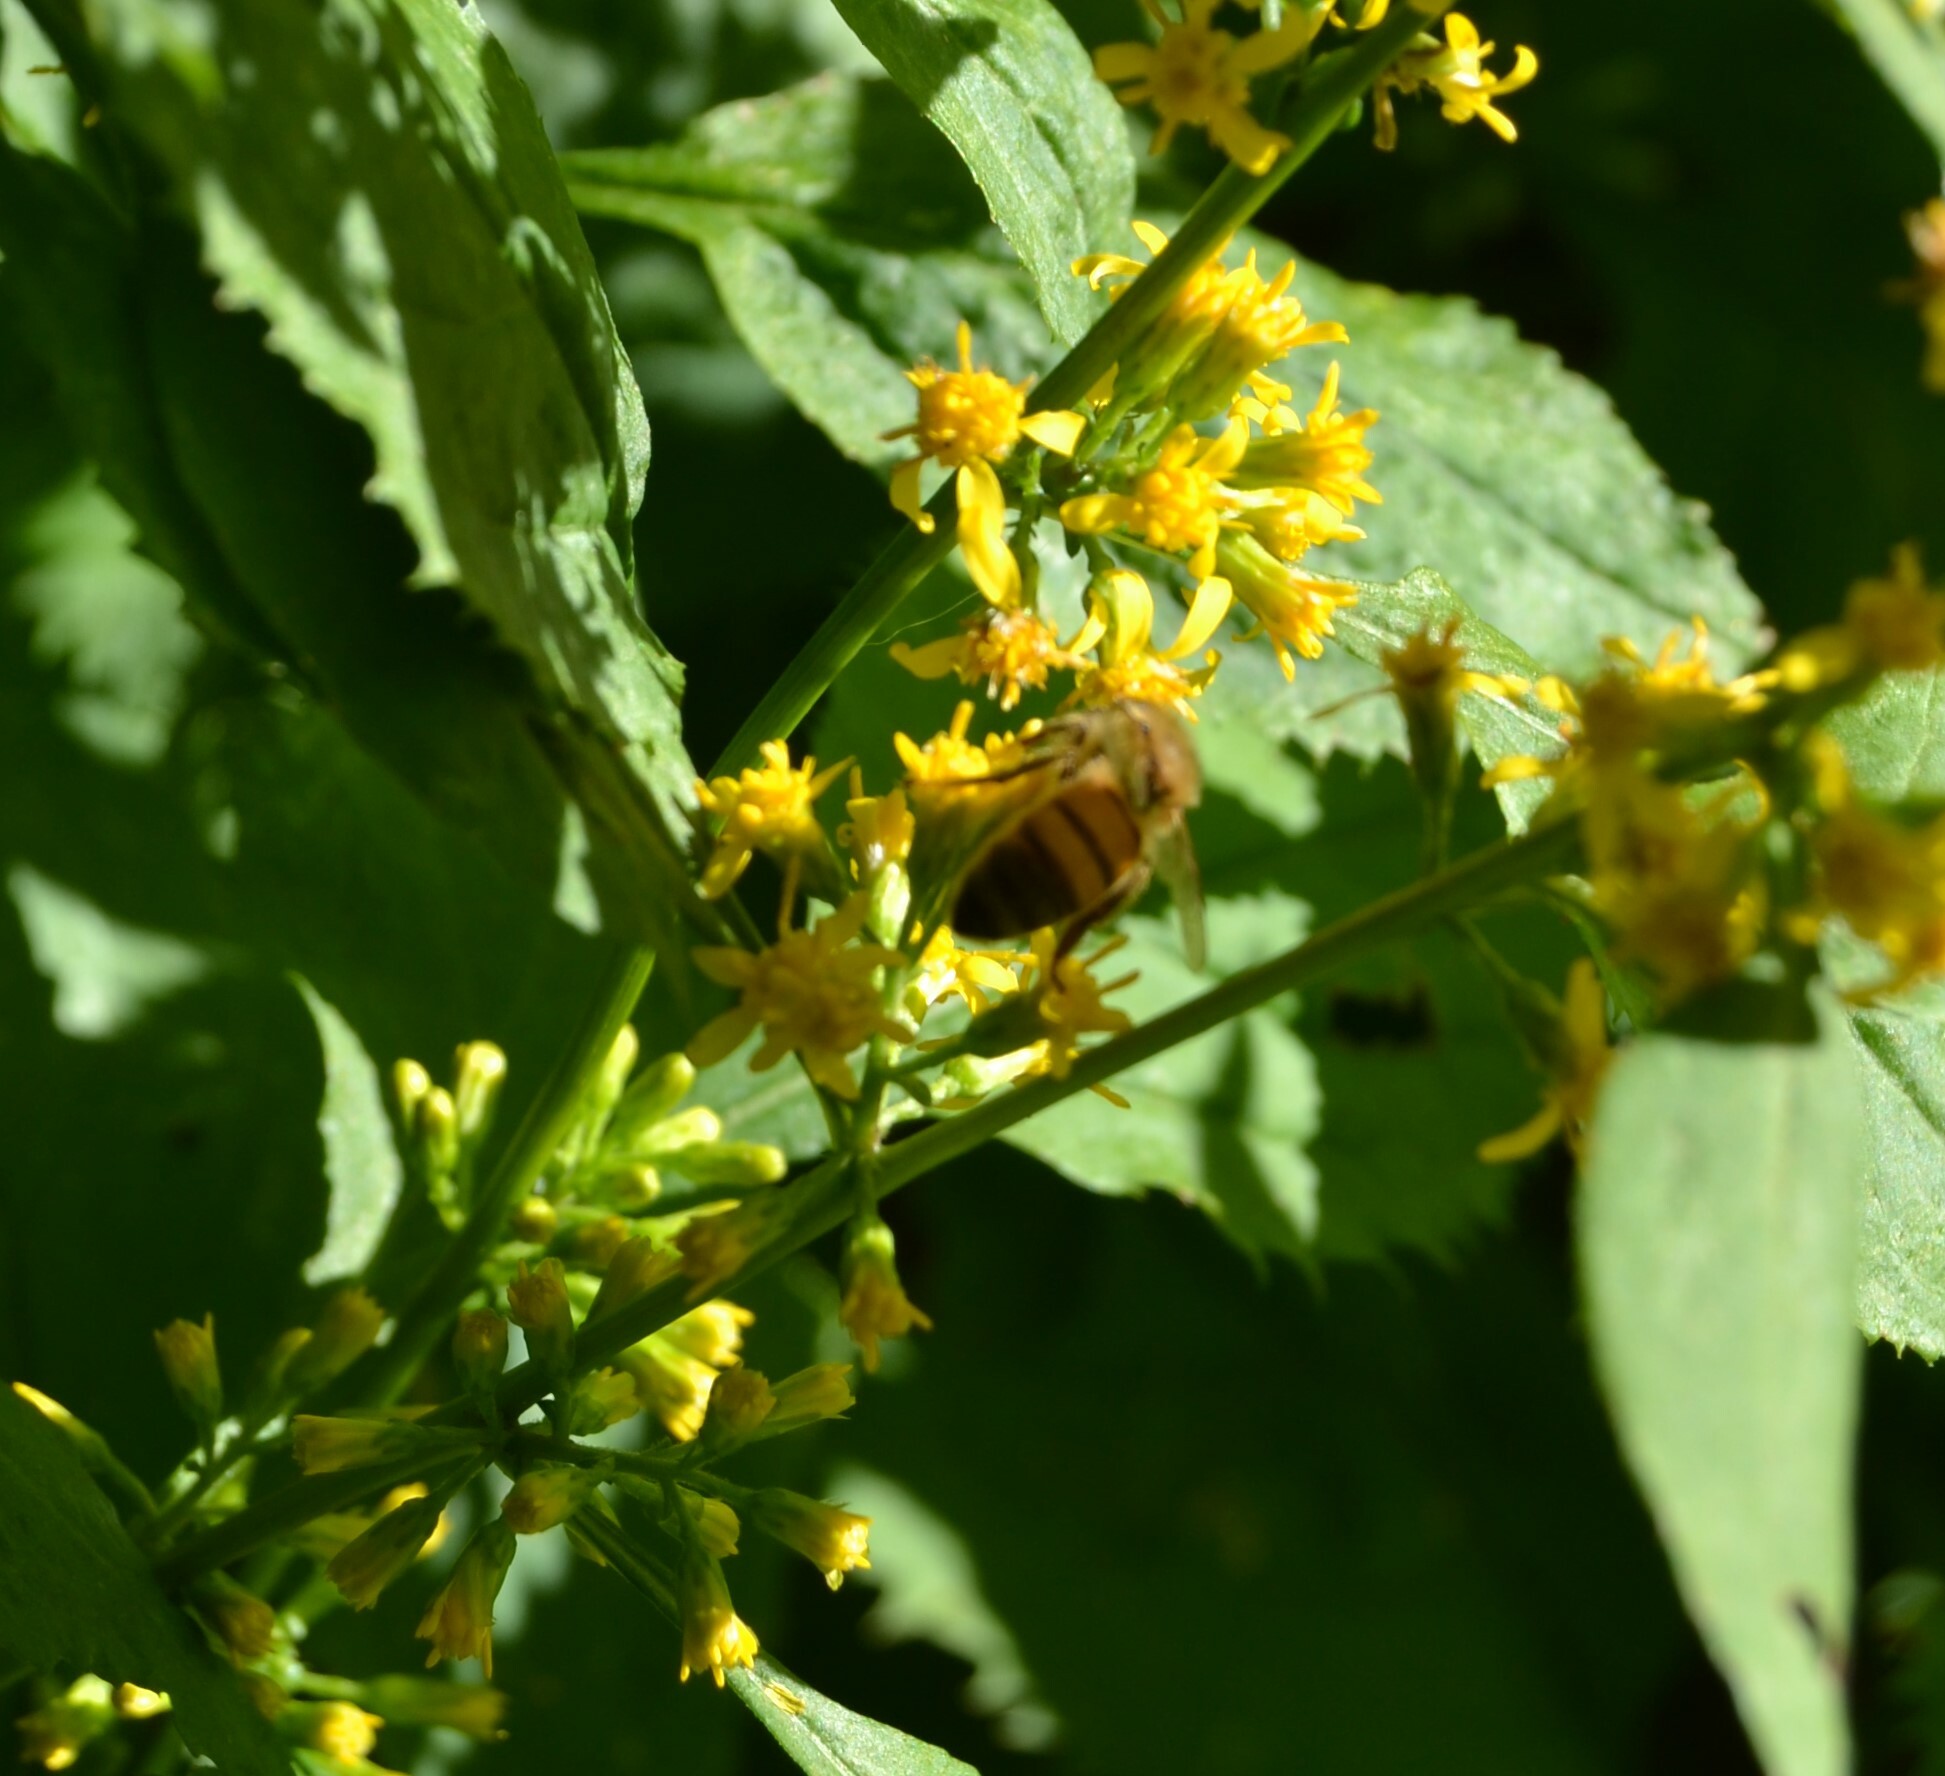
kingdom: Animalia
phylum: Arthropoda
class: Insecta
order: Hymenoptera
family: Apidae
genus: Apis
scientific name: Apis mellifera
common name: Honey bee
